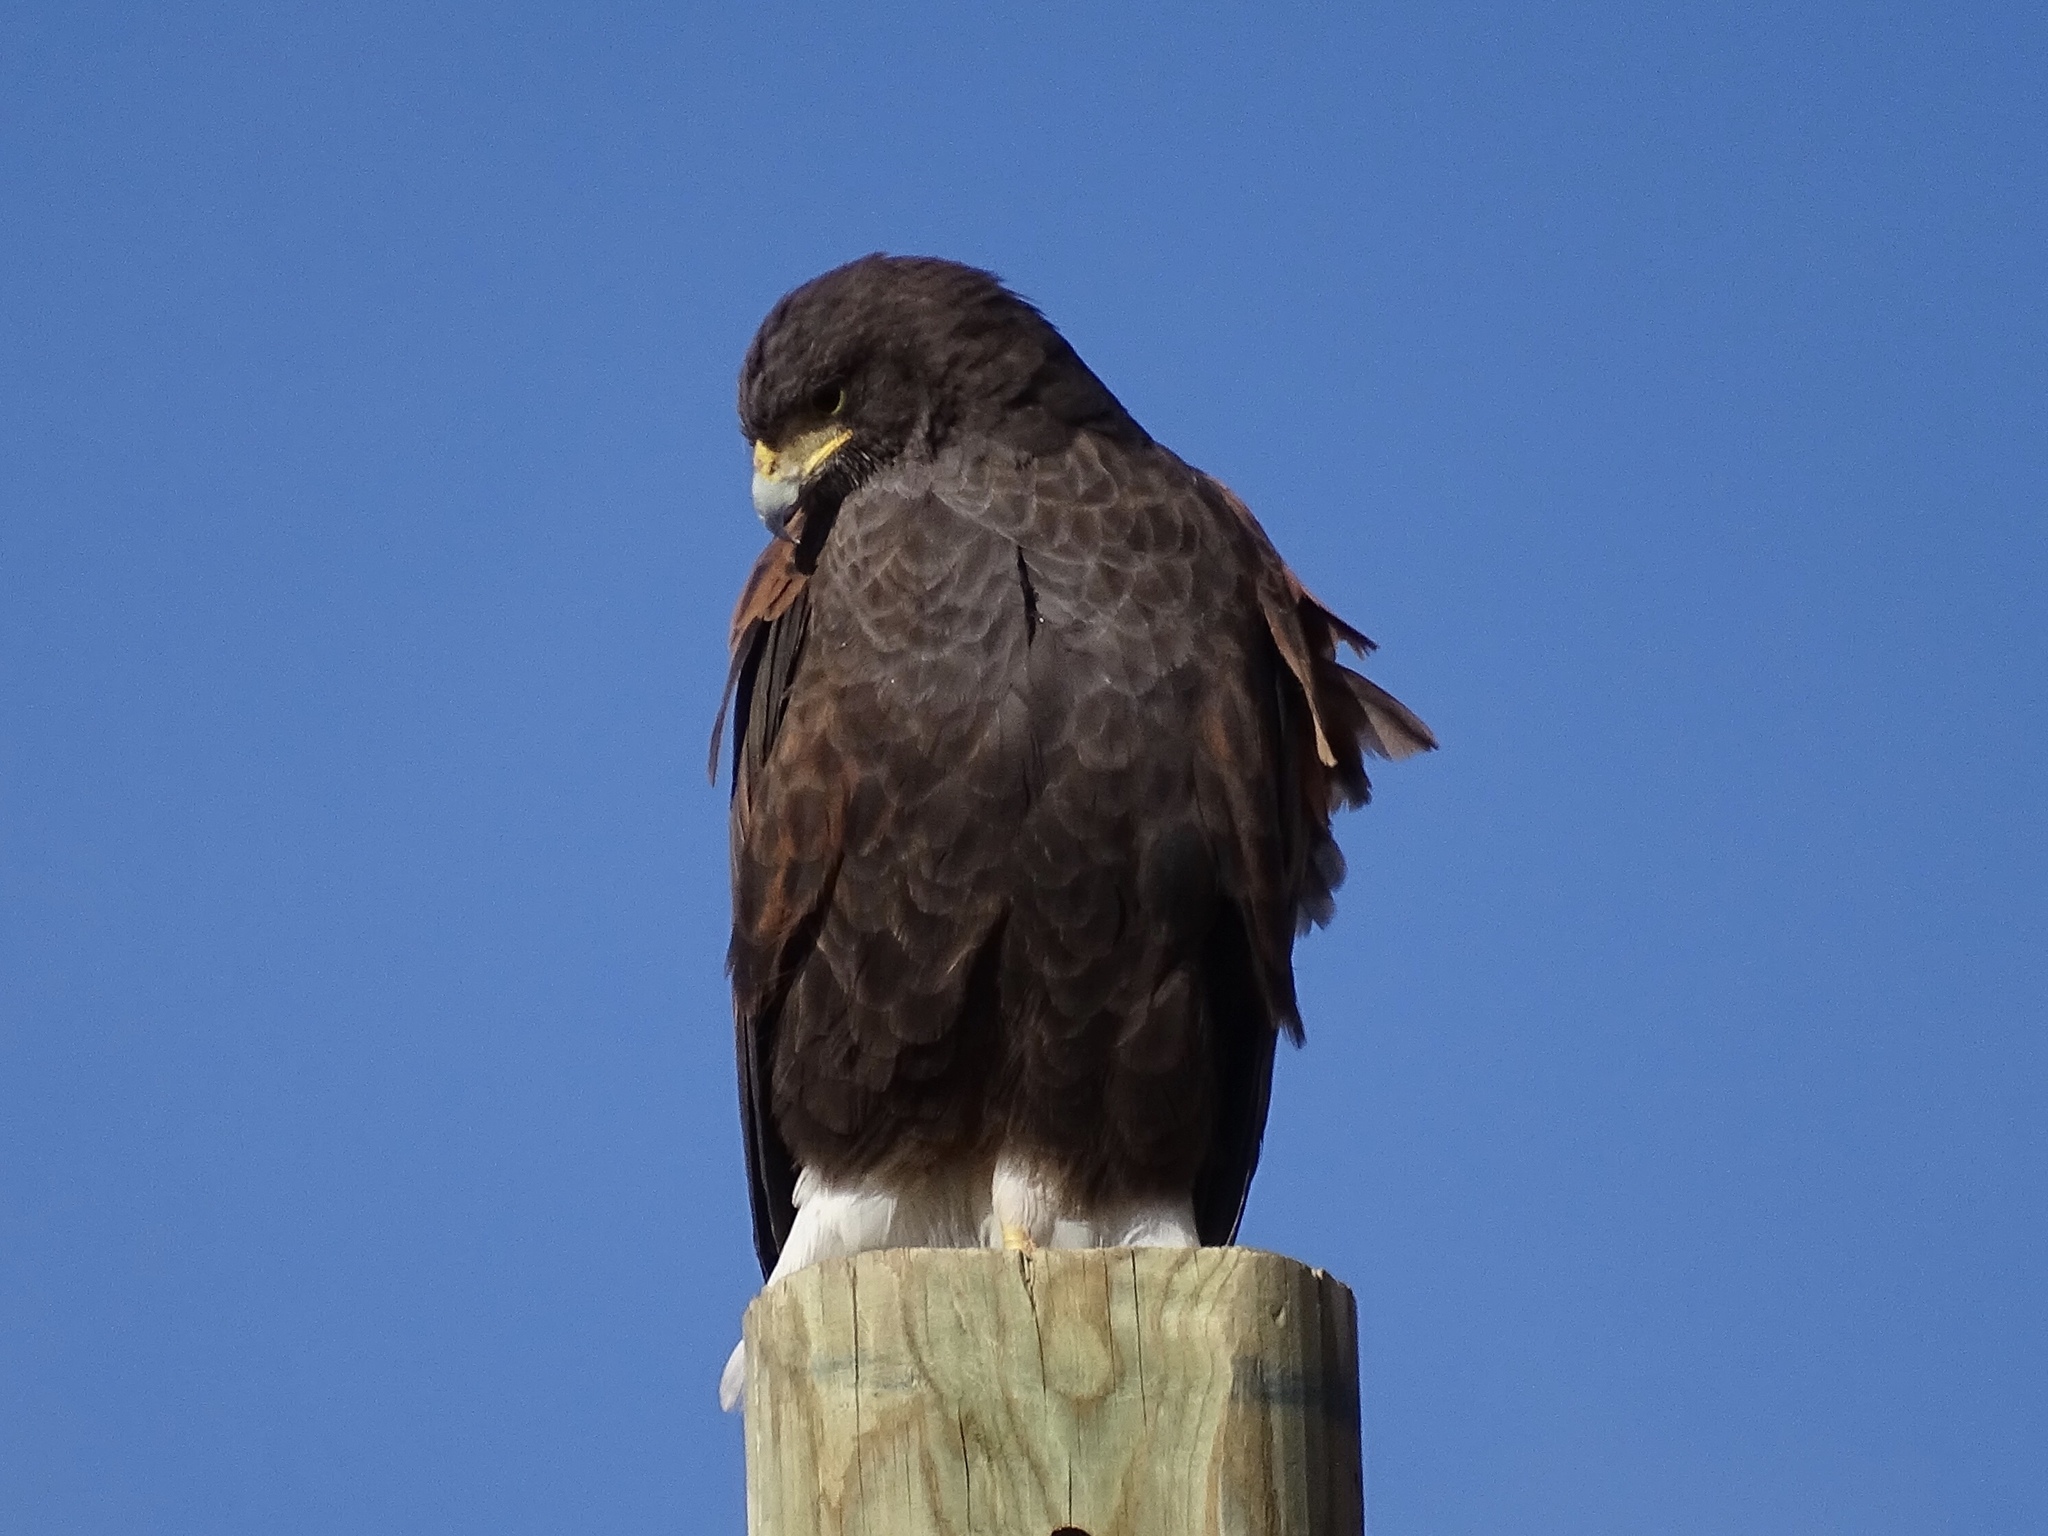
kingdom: Animalia
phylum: Chordata
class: Aves
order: Accipitriformes
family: Accipitridae
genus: Parabuteo
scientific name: Parabuteo unicinctus
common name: Harris's hawk
